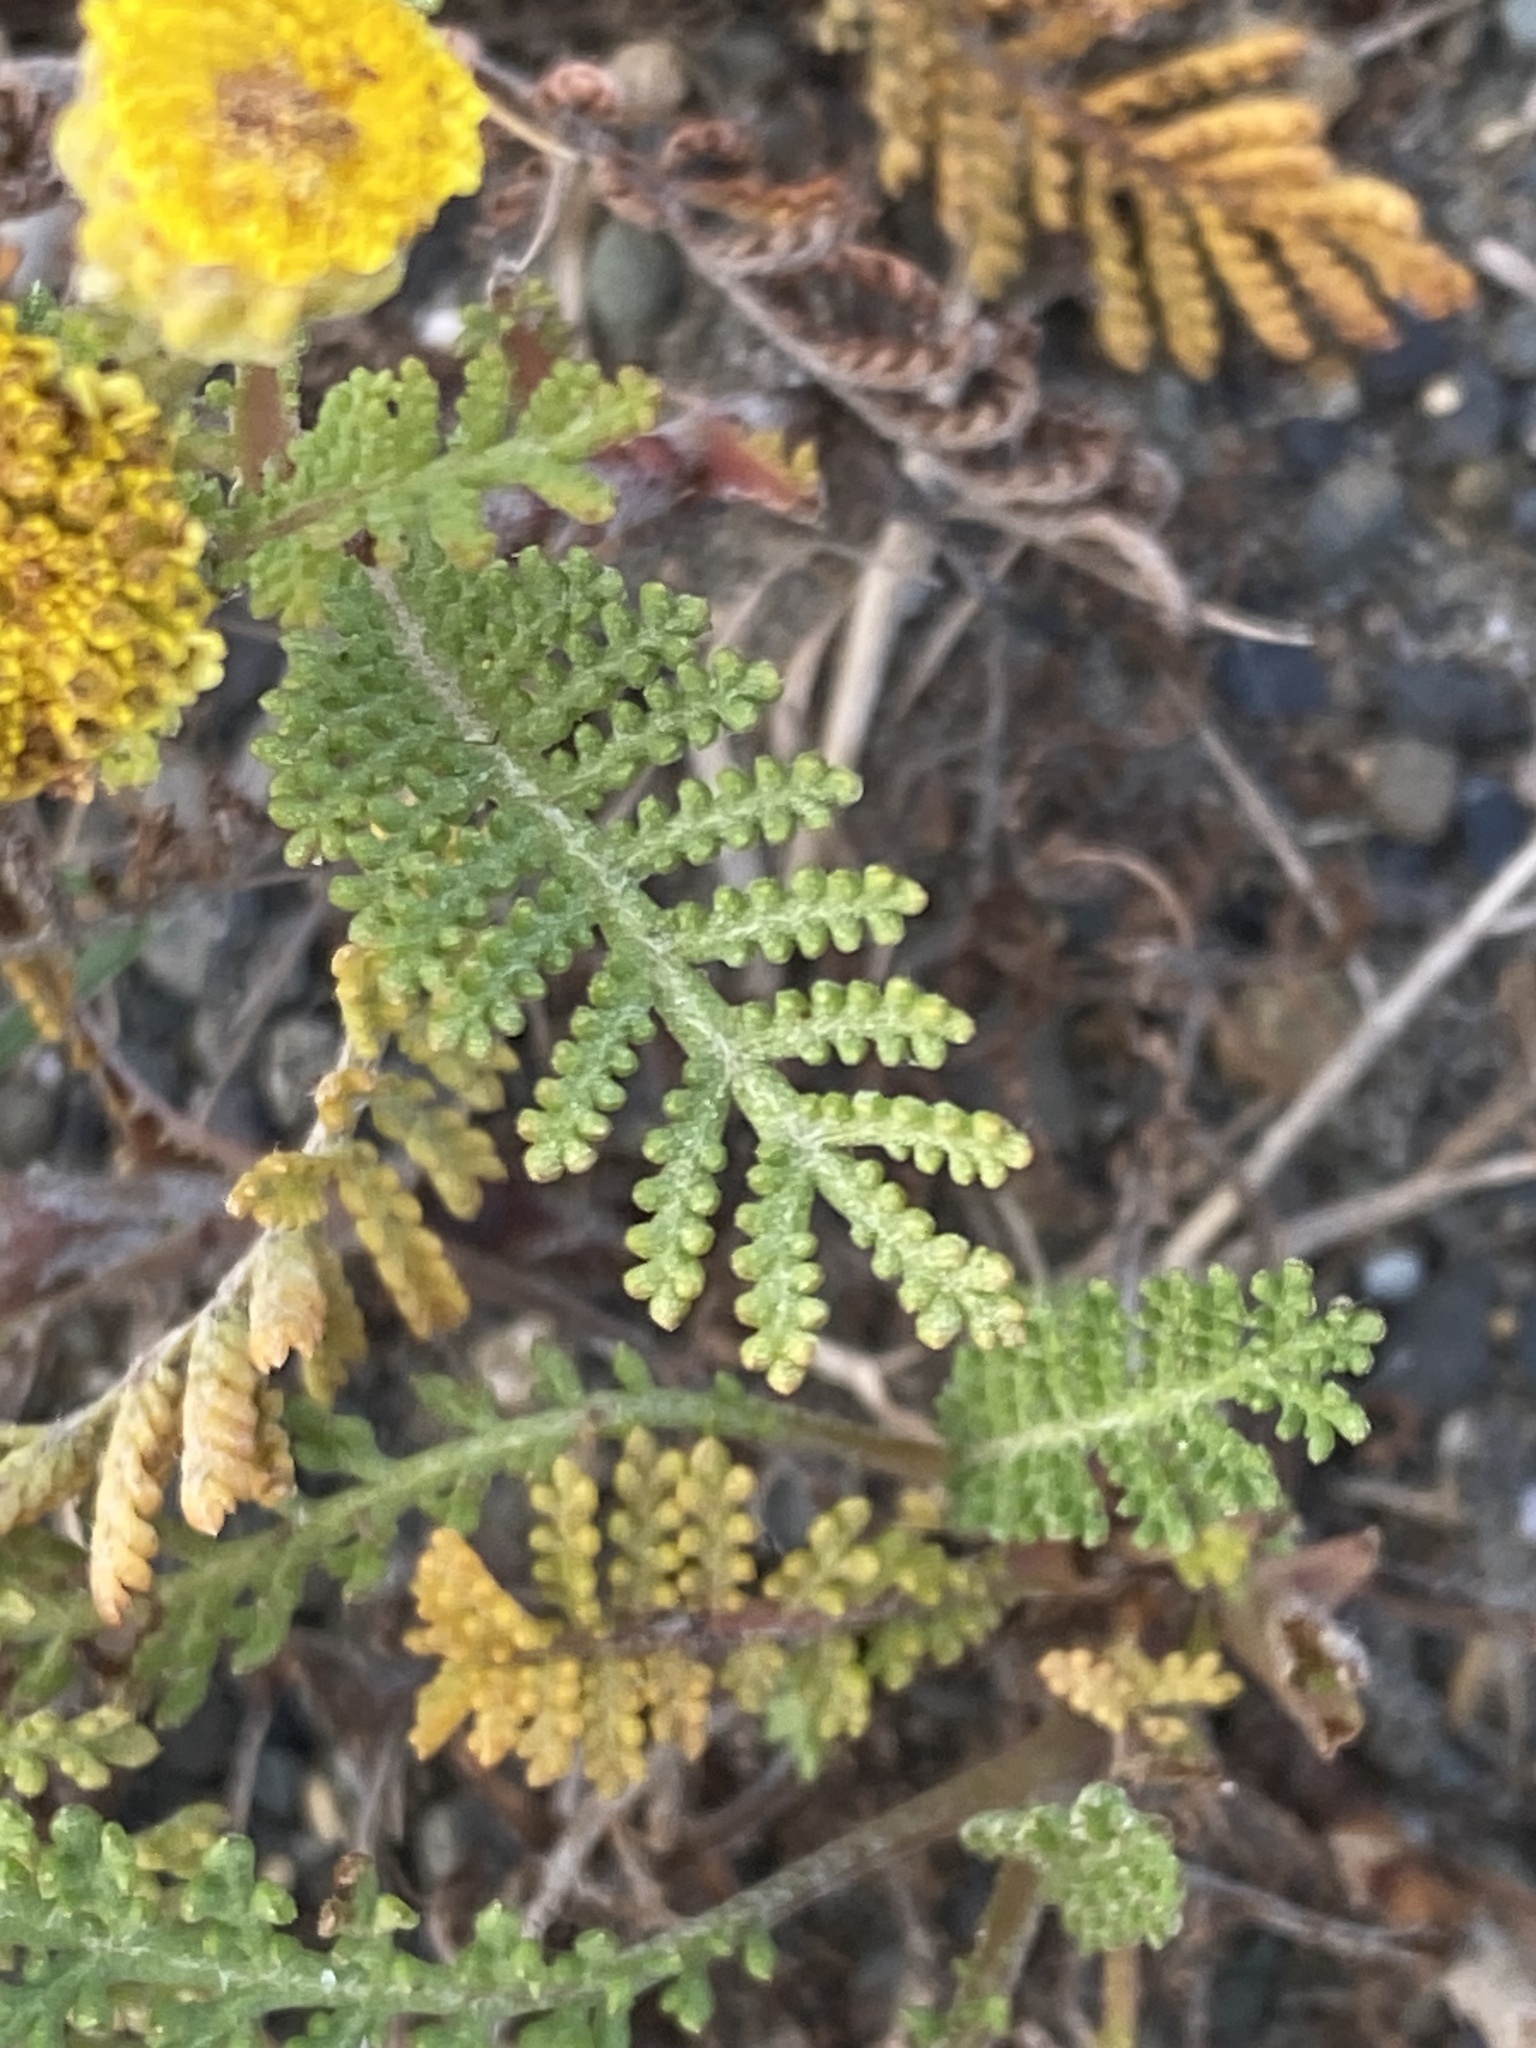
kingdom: Plantae
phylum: Tracheophyta
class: Magnoliopsida
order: Asterales
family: Asteraceae
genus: Tanacetum
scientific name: Tanacetum bipinnatum
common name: Dwarf tansy
